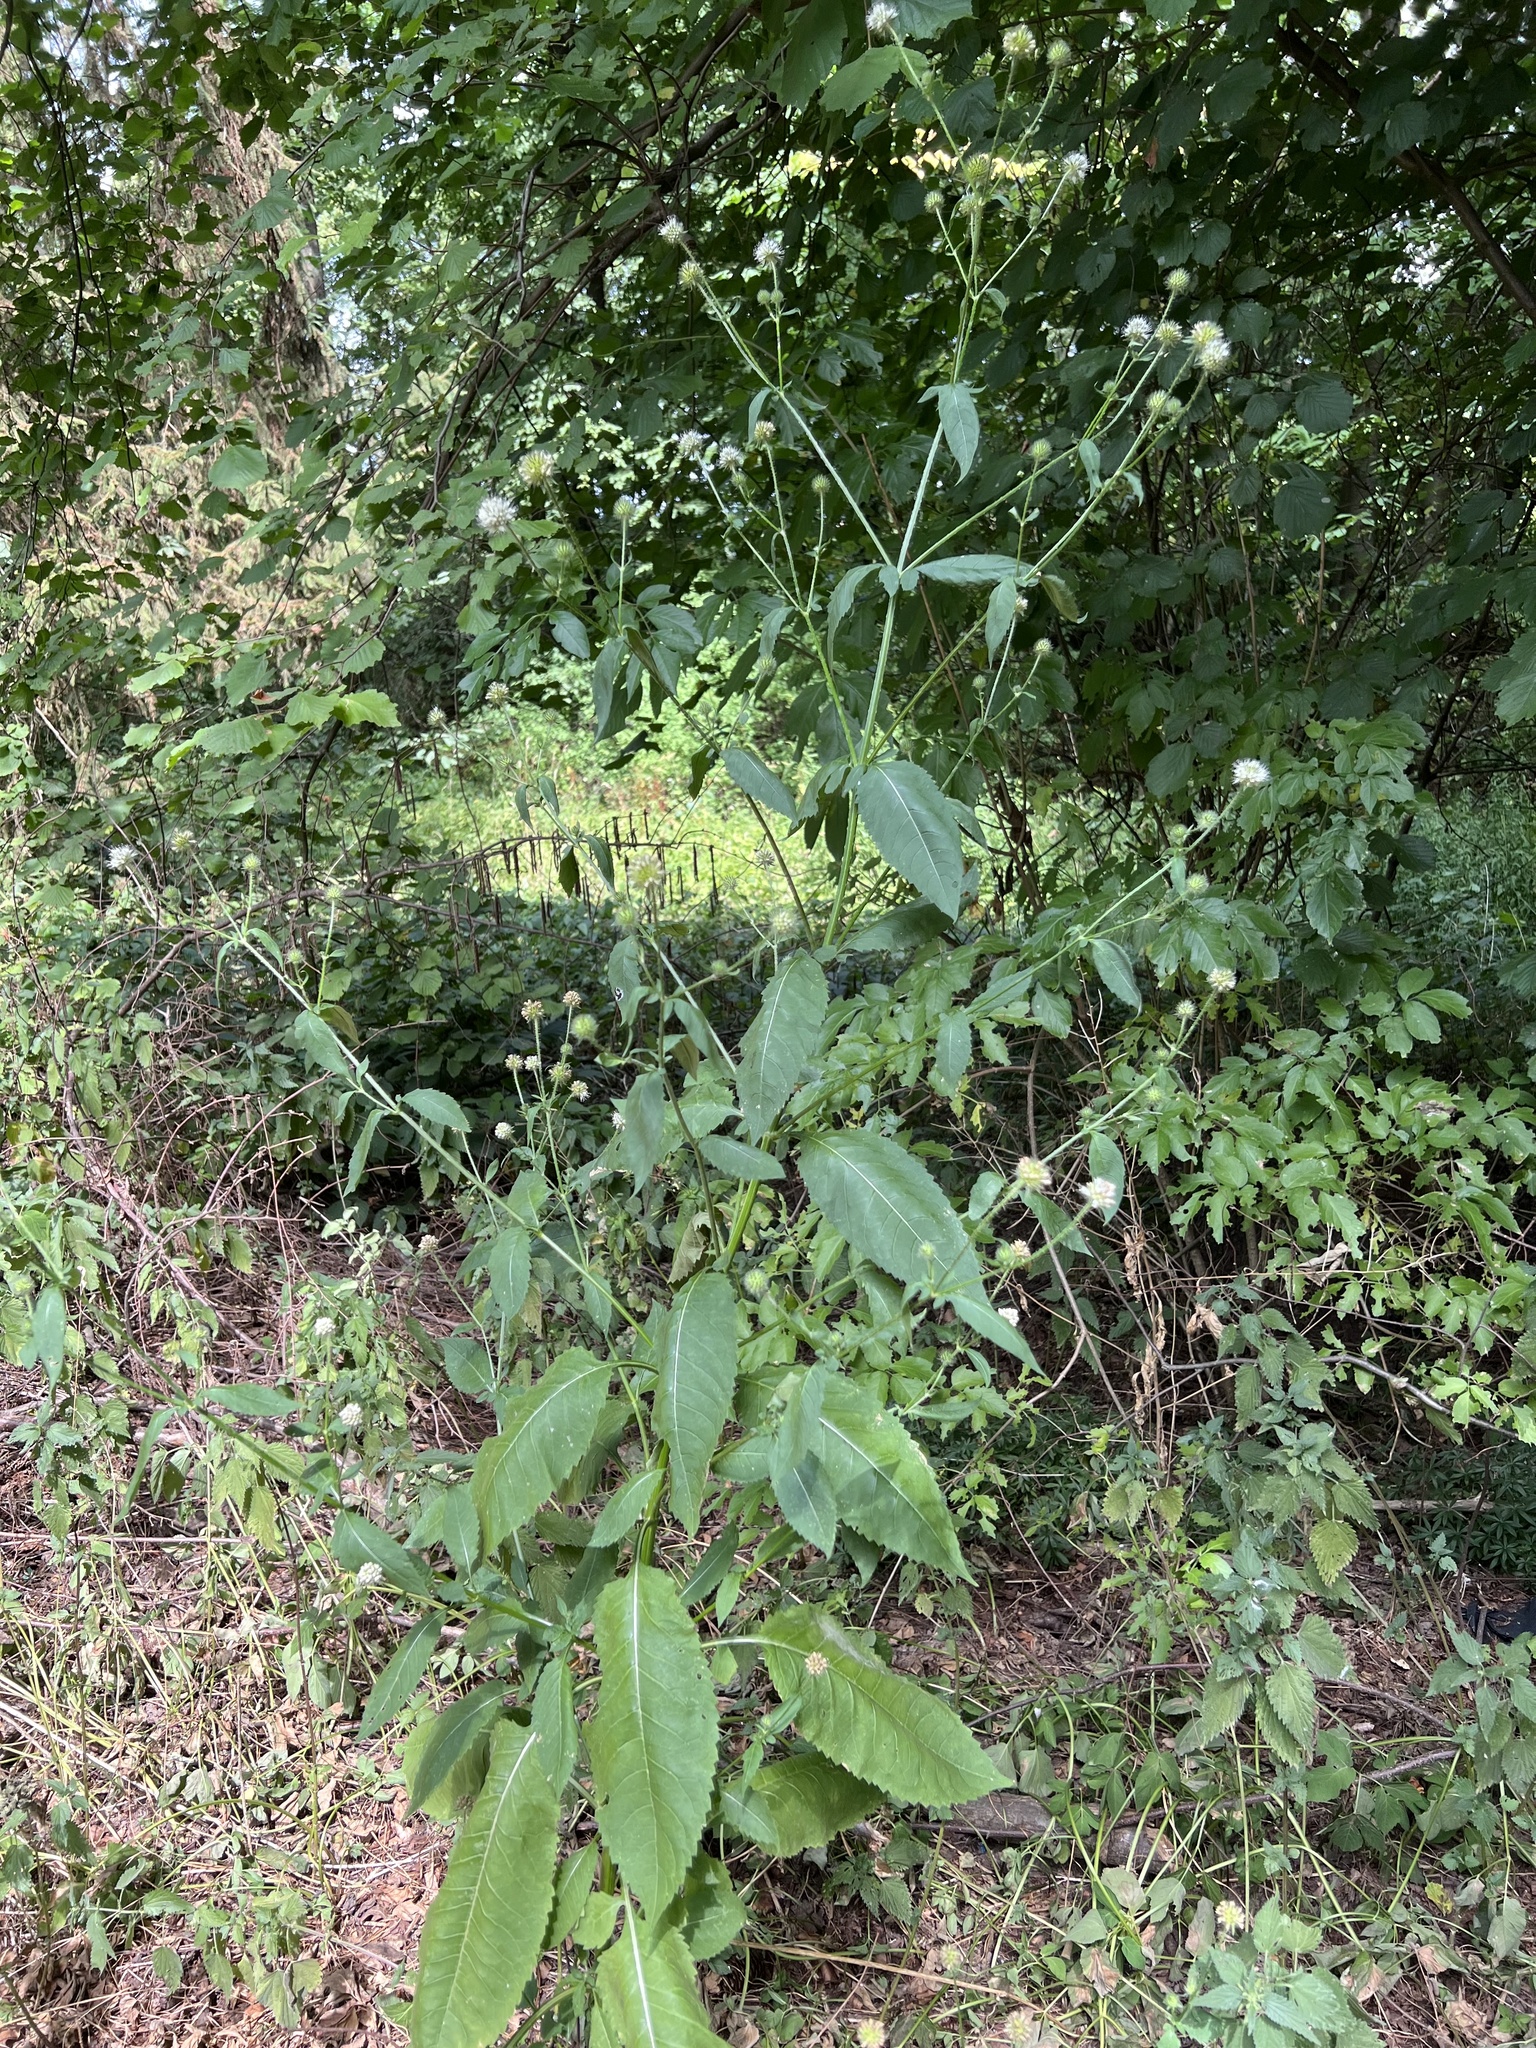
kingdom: Plantae
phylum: Tracheophyta
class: Magnoliopsida
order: Dipsacales
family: Caprifoliaceae
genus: Dipsacus
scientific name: Dipsacus pilosus
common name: Small teasel
